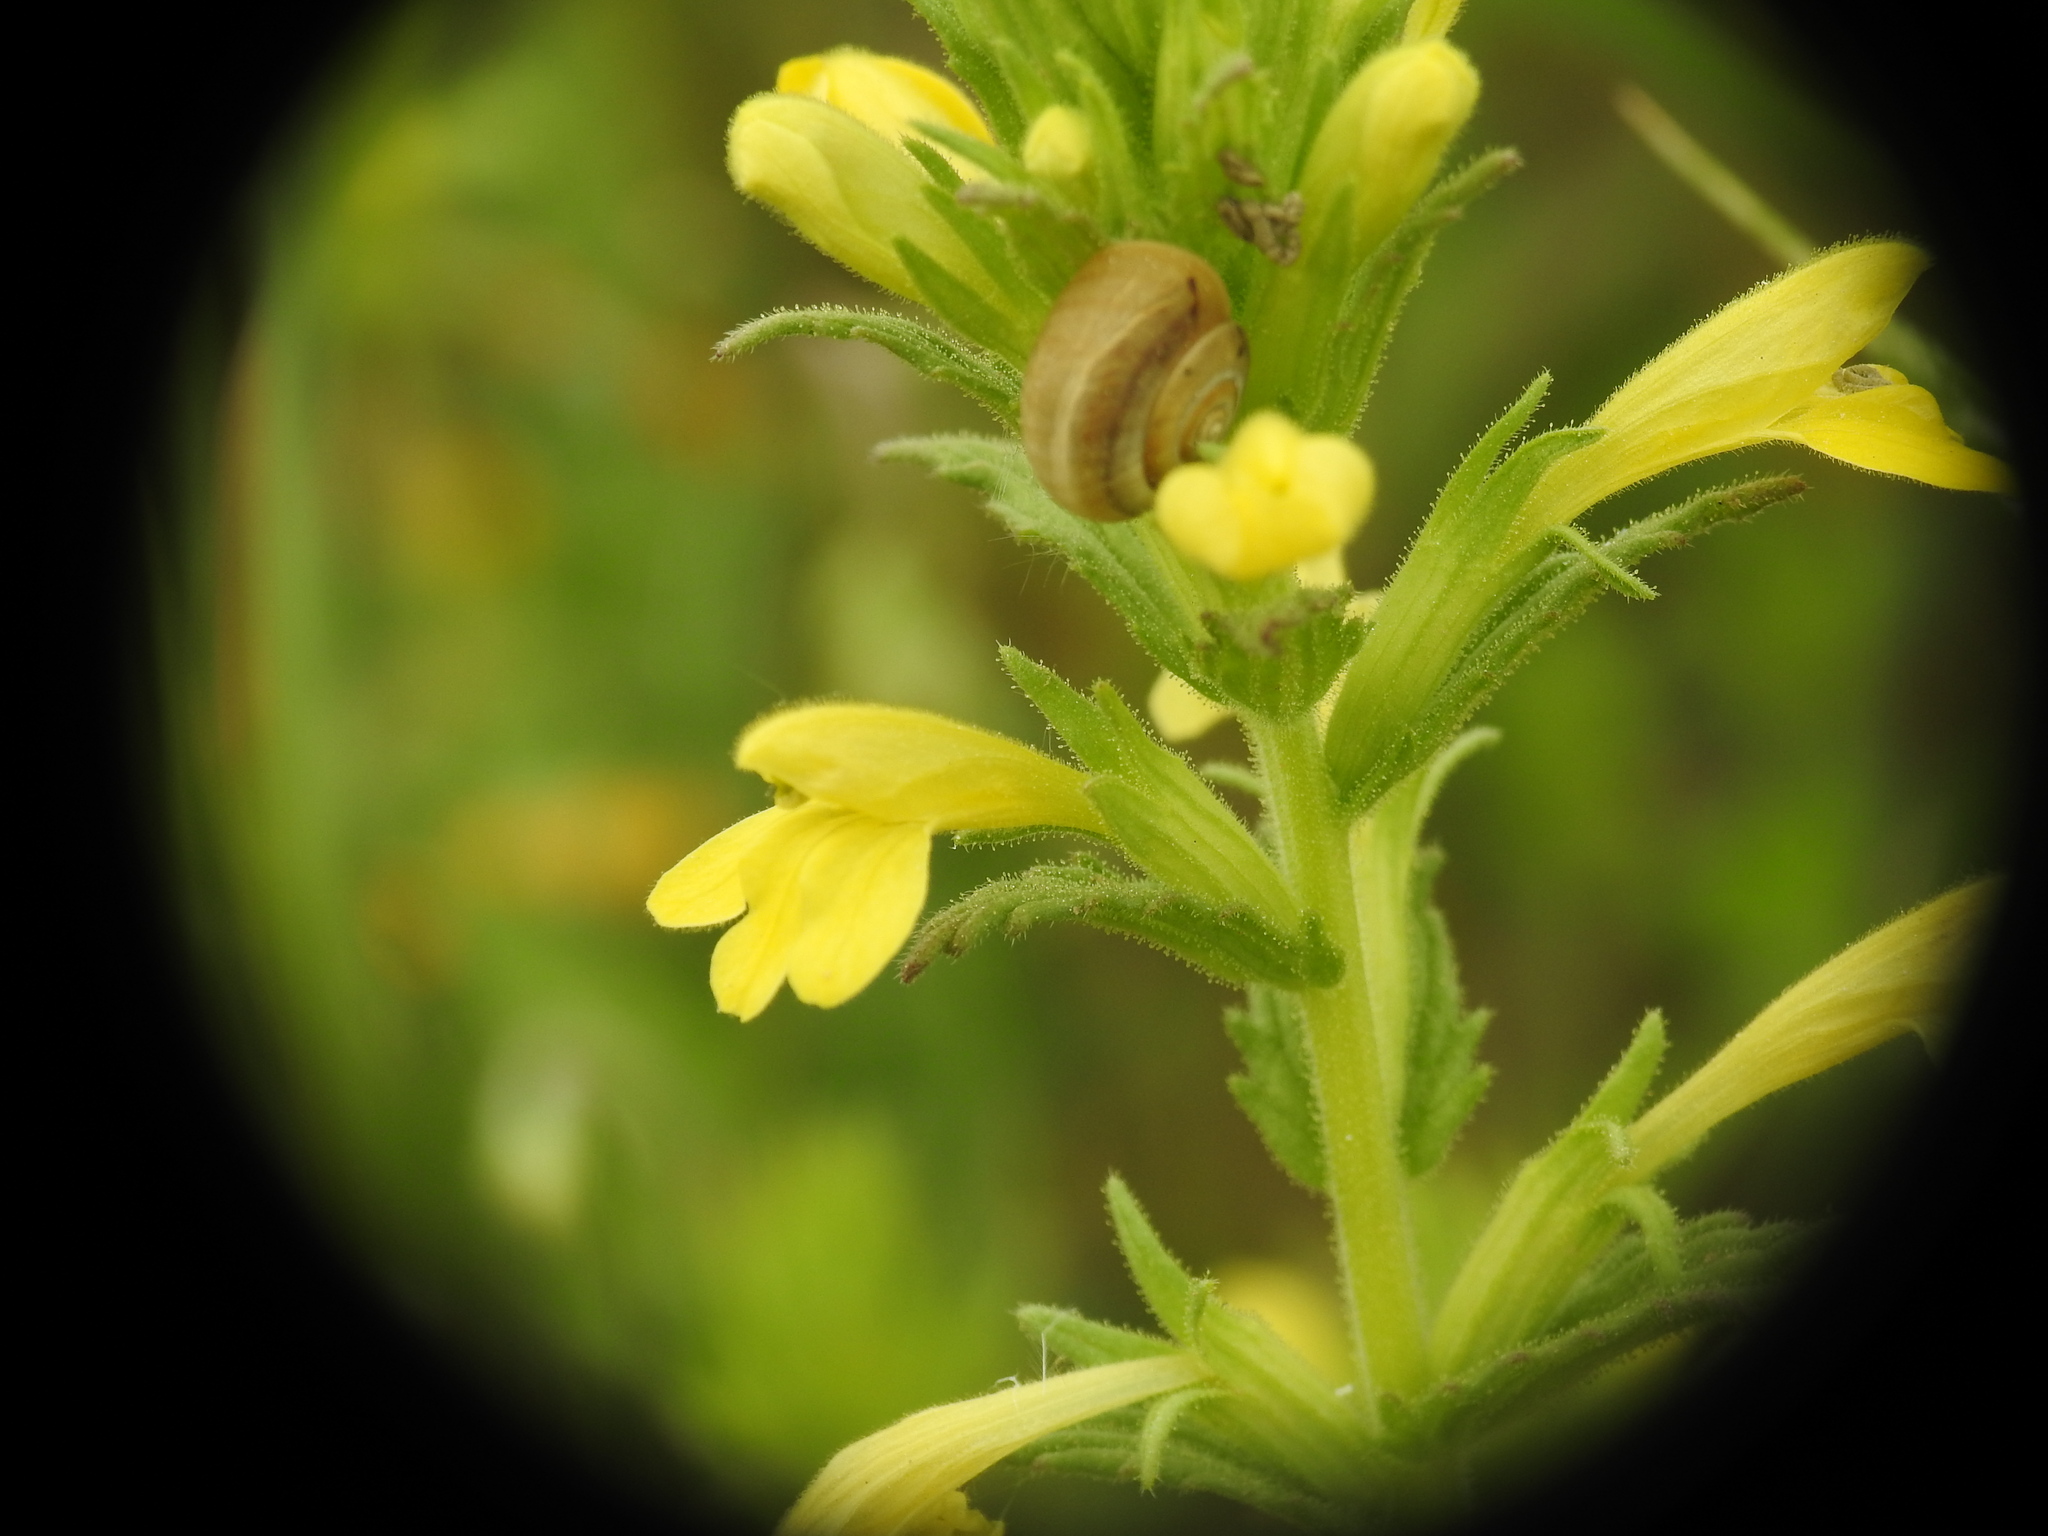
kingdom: Plantae
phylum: Tracheophyta
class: Magnoliopsida
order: Lamiales
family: Orobanchaceae
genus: Bellardia
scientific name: Bellardia viscosa
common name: Sticky parentucellia
